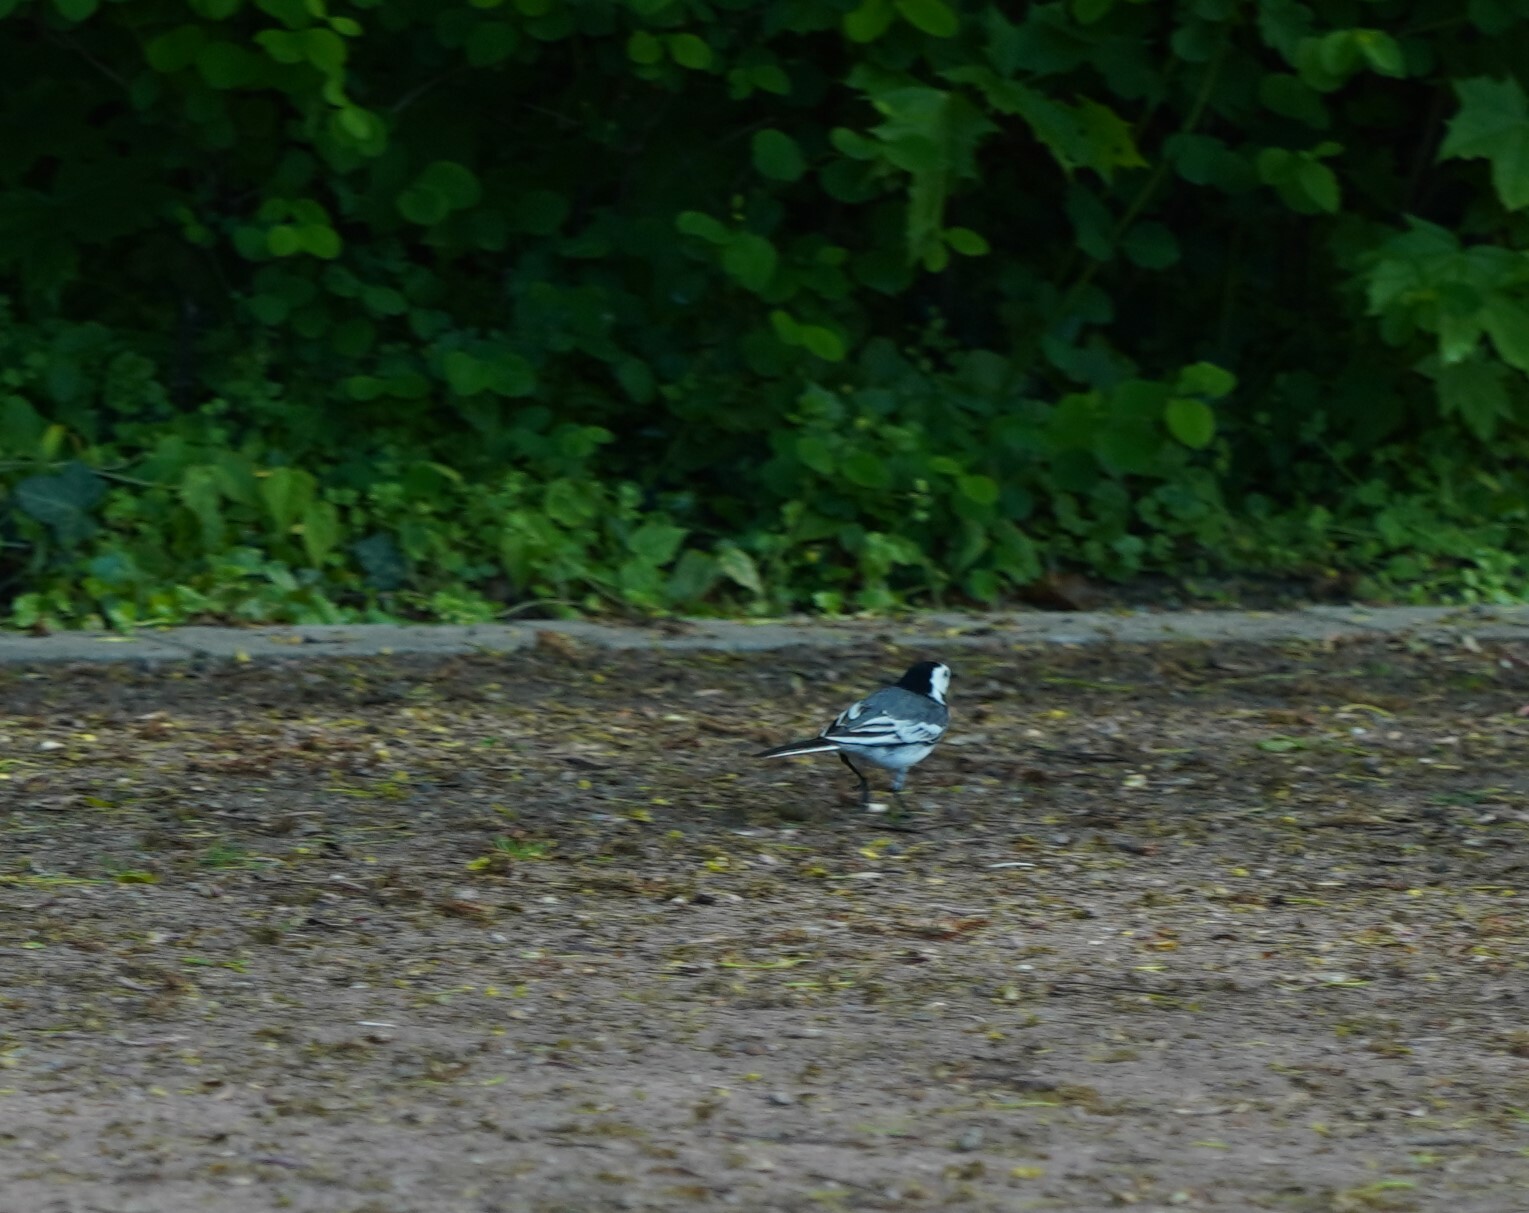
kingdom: Animalia
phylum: Chordata
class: Aves
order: Passeriformes
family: Motacillidae
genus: Motacilla
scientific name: Motacilla alba
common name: White wagtail
